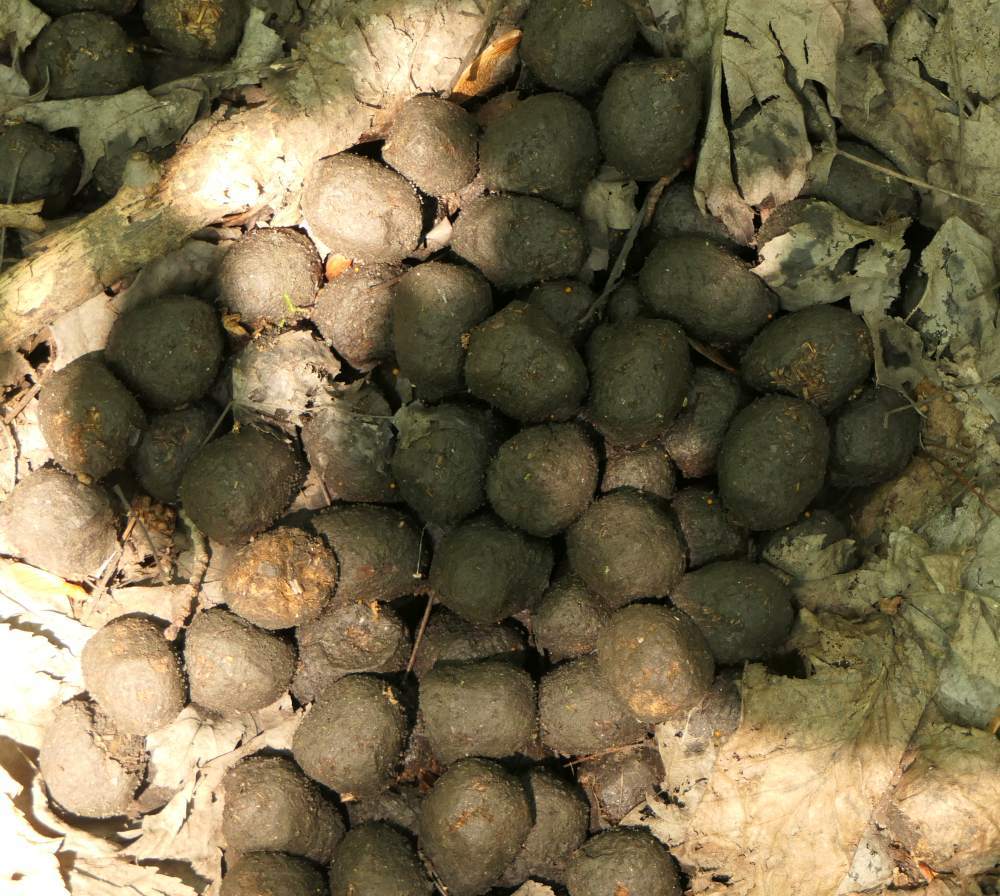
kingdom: Animalia
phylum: Chordata
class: Mammalia
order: Artiodactyla
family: Cervidae
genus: Alces
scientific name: Alces alces
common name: Moose
